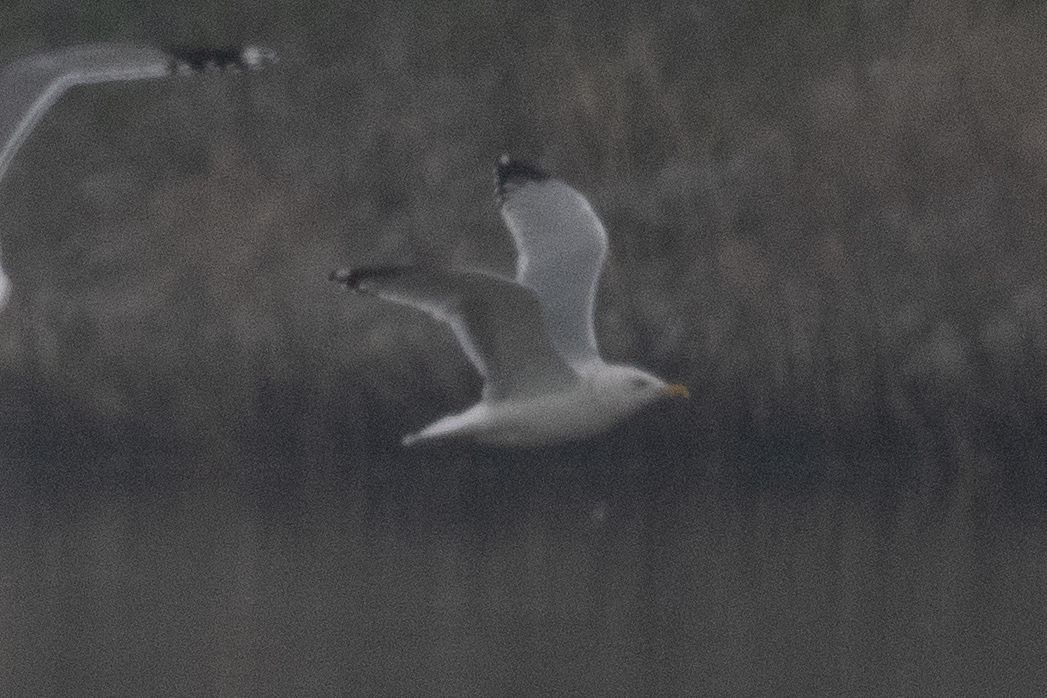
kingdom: Animalia
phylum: Chordata
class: Aves
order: Charadriiformes
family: Laridae
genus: Larus
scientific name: Larus argentatus
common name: Herring gull
